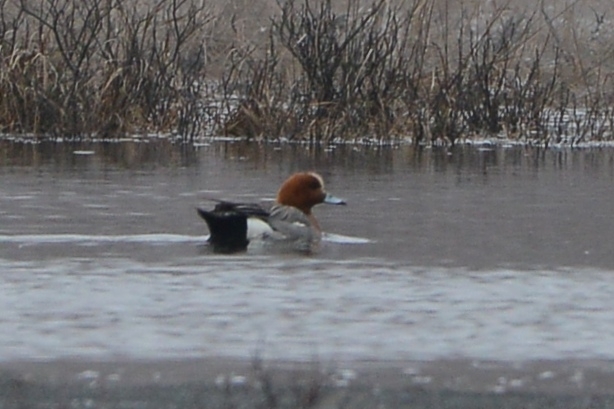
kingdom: Animalia
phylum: Chordata
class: Aves
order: Anseriformes
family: Anatidae
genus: Mareca
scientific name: Mareca penelope
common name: Eurasian wigeon
